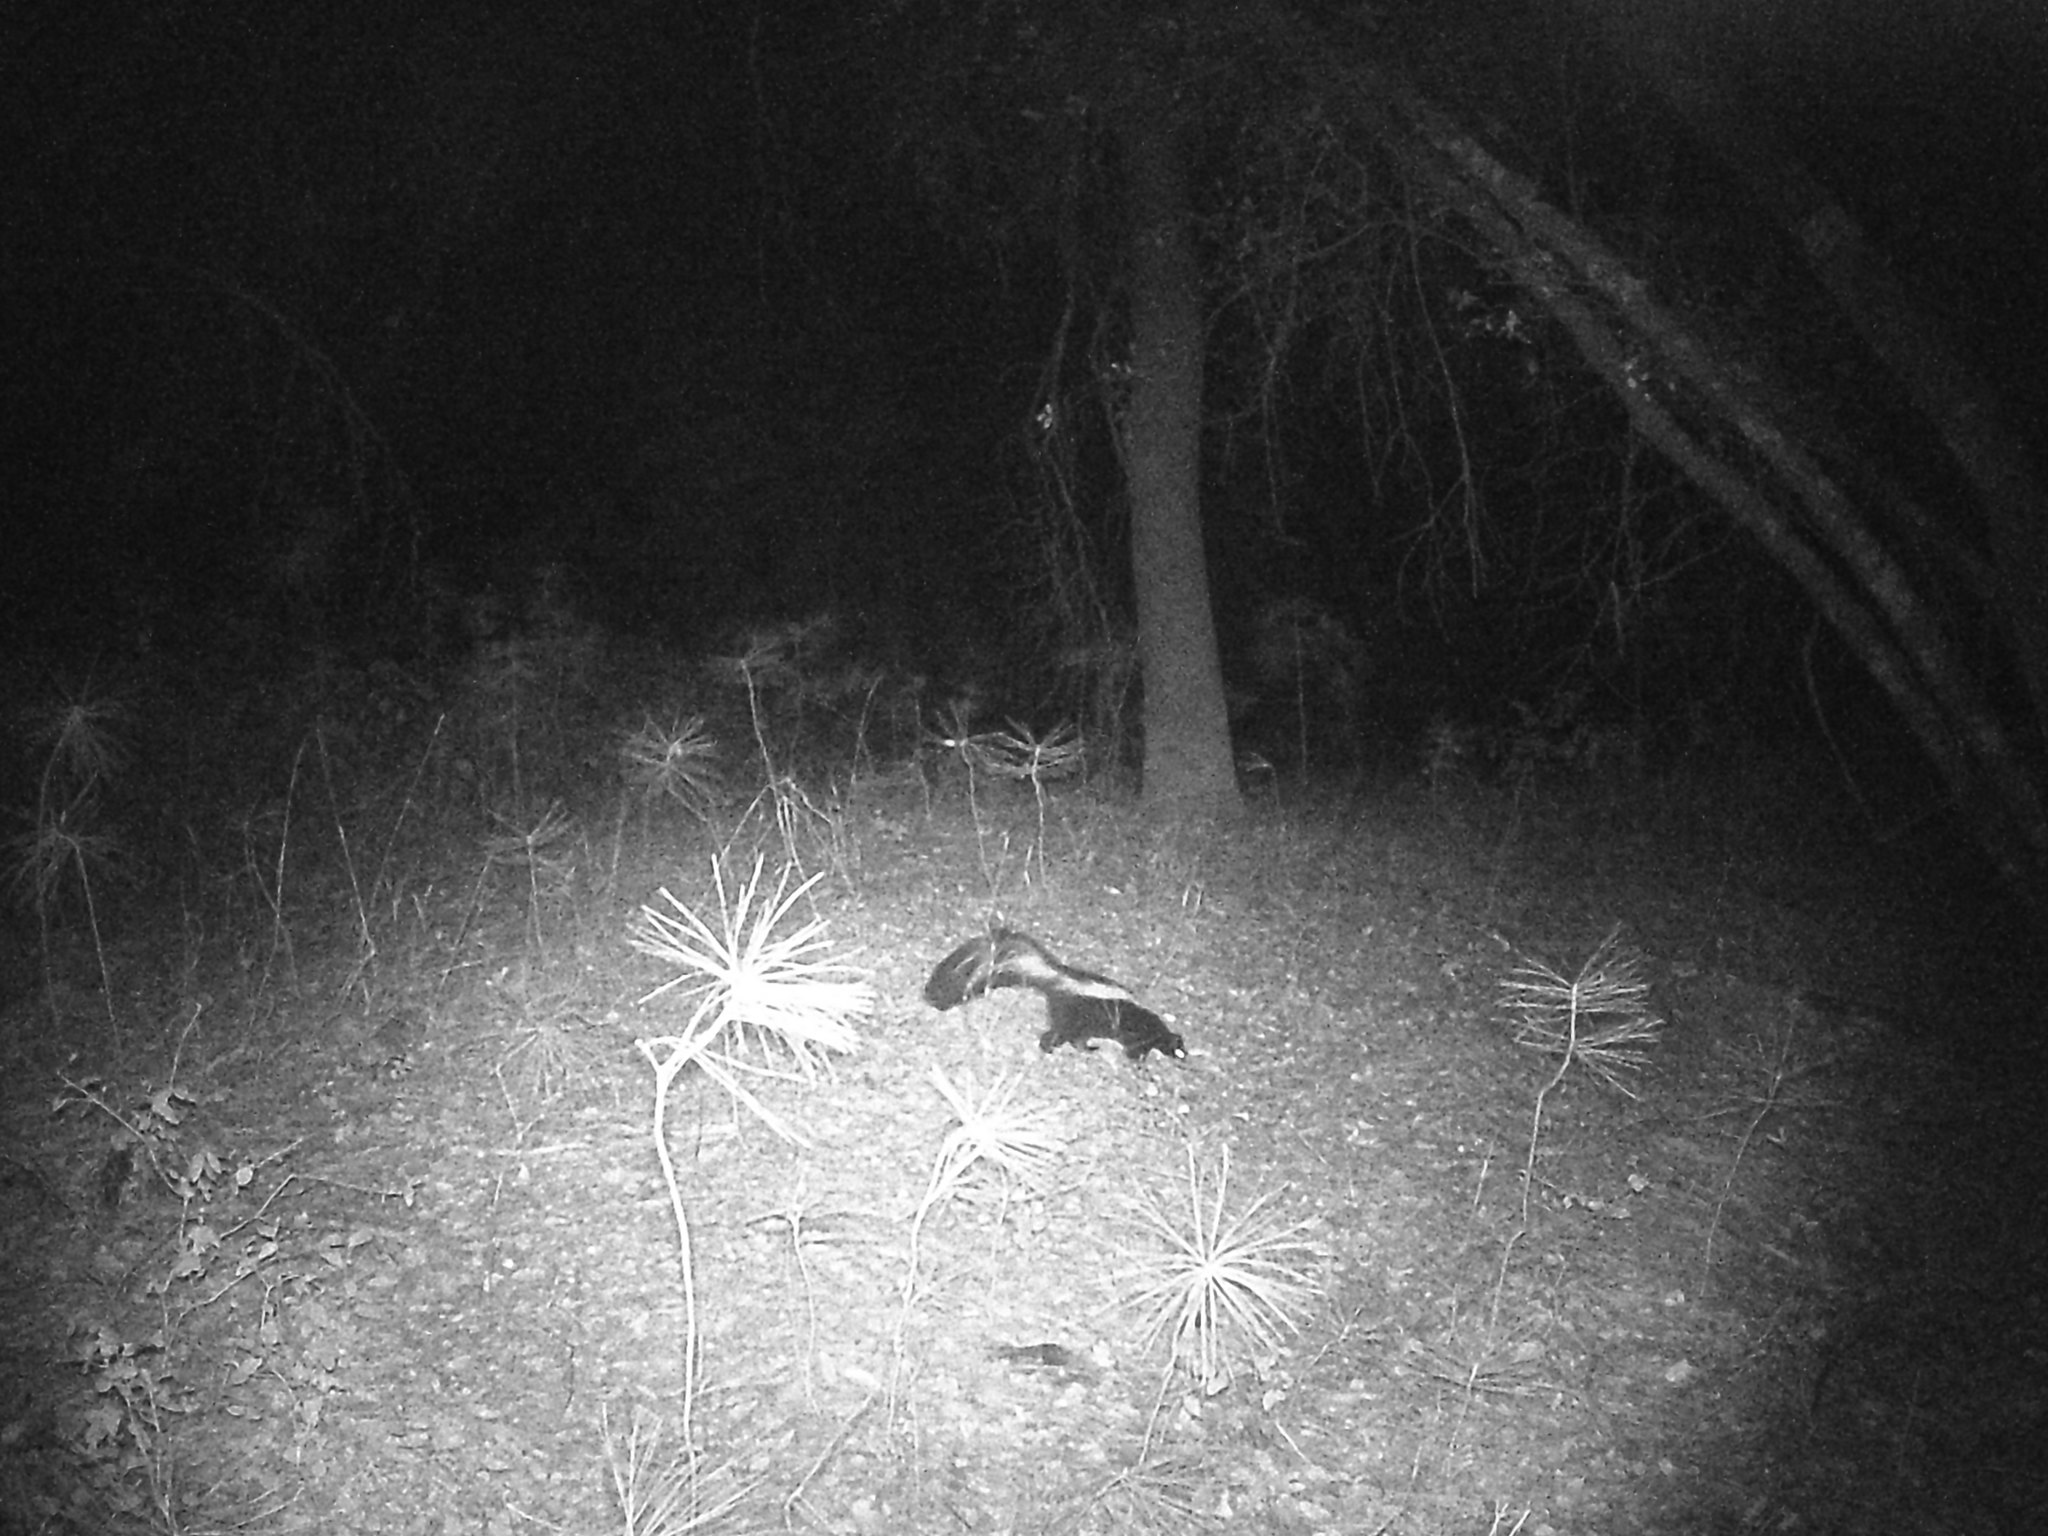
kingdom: Animalia
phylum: Chordata
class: Mammalia
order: Carnivora
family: Mephitidae
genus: Mephitis
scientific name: Mephitis mephitis
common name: Striped skunk
